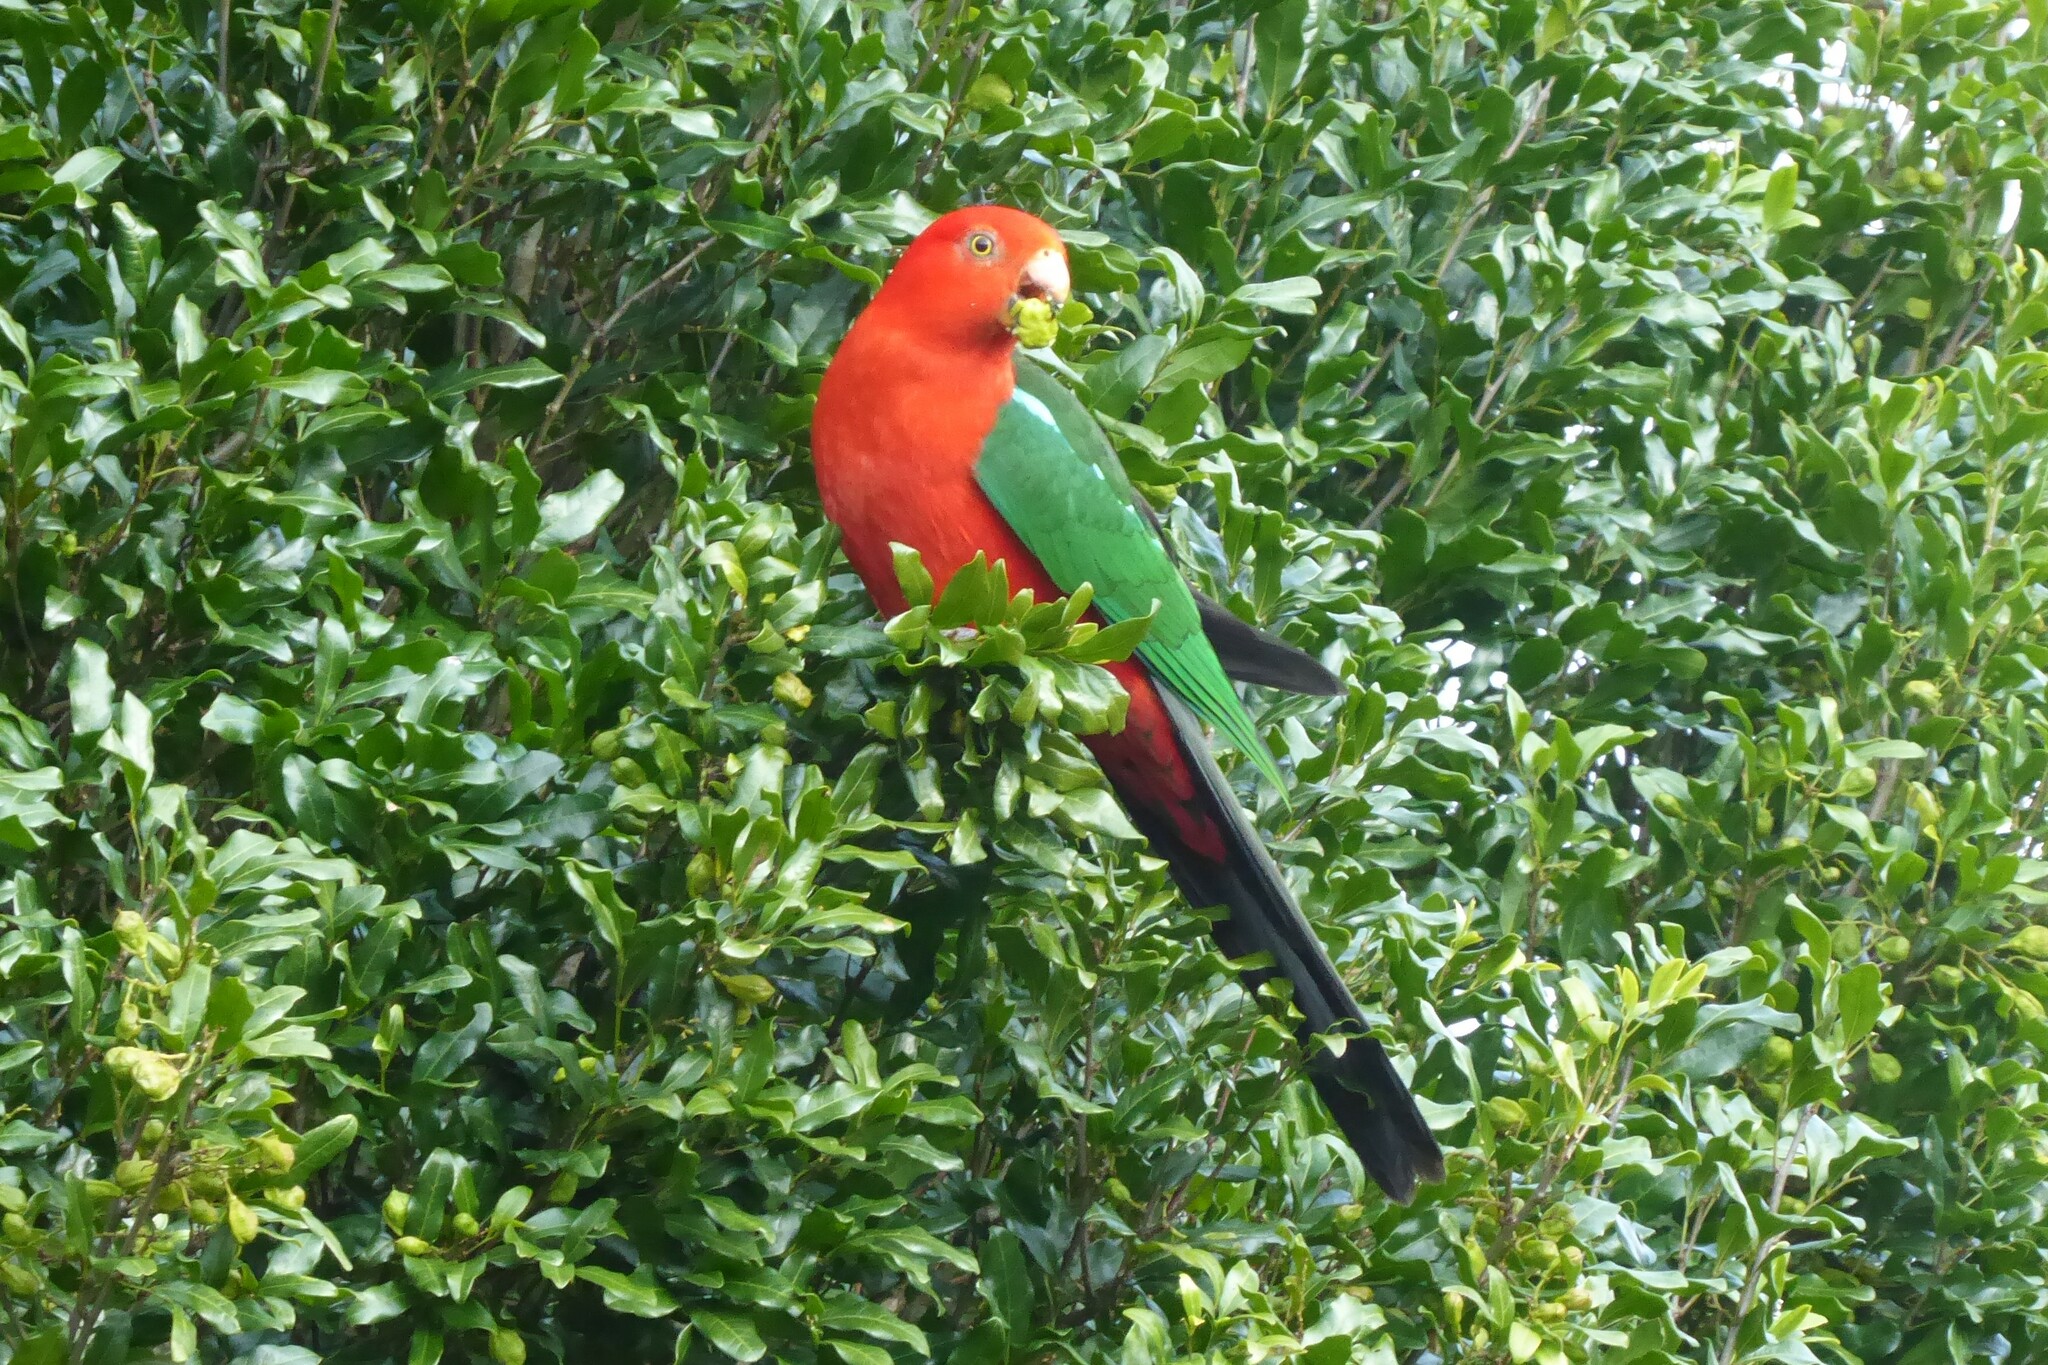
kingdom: Animalia
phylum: Chordata
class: Aves
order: Psittaciformes
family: Psittacidae
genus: Alisterus
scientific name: Alisterus scapularis
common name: Australian king parrot
